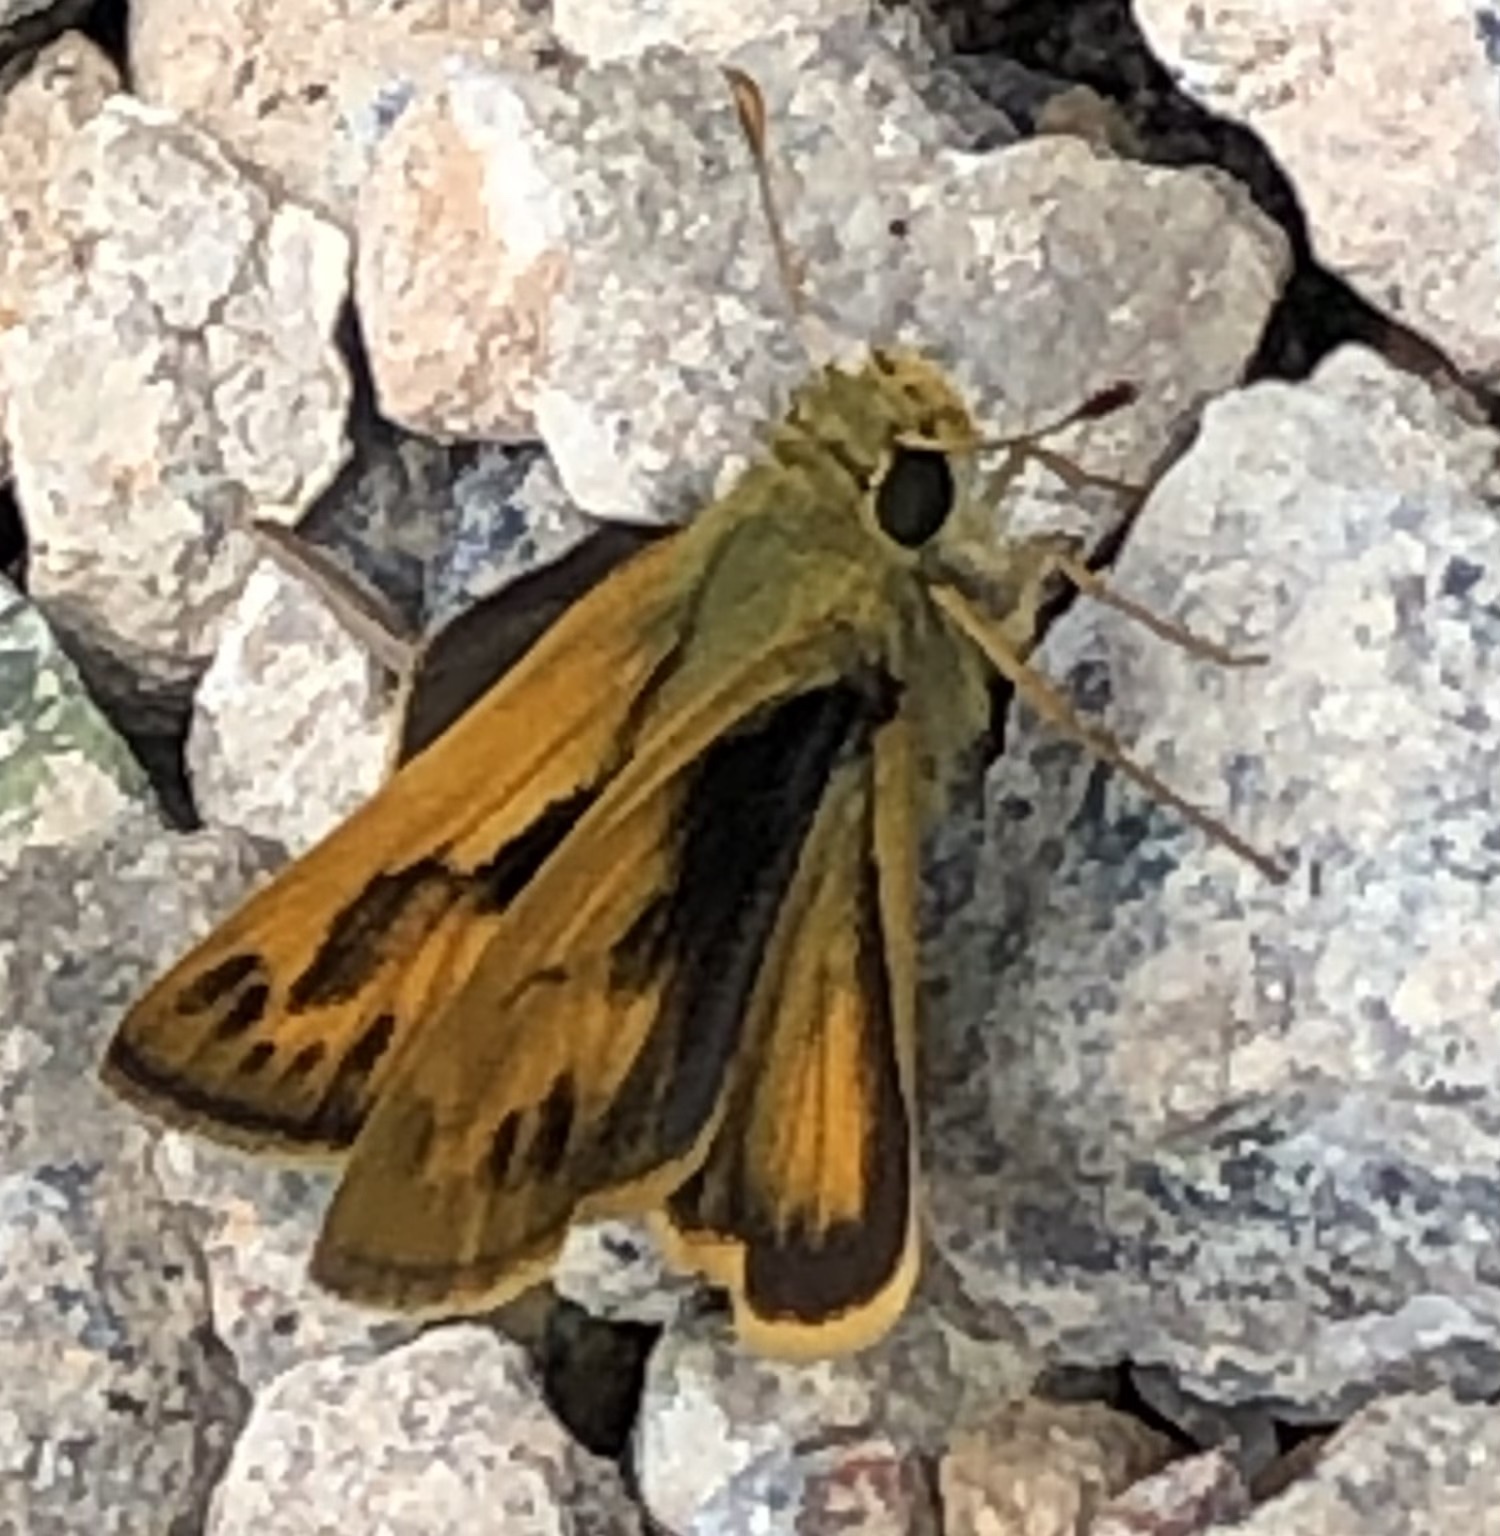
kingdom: Animalia
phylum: Arthropoda
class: Insecta
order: Lepidoptera
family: Hesperiidae
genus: Polites
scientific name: Polites vibex
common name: Whirlabout
